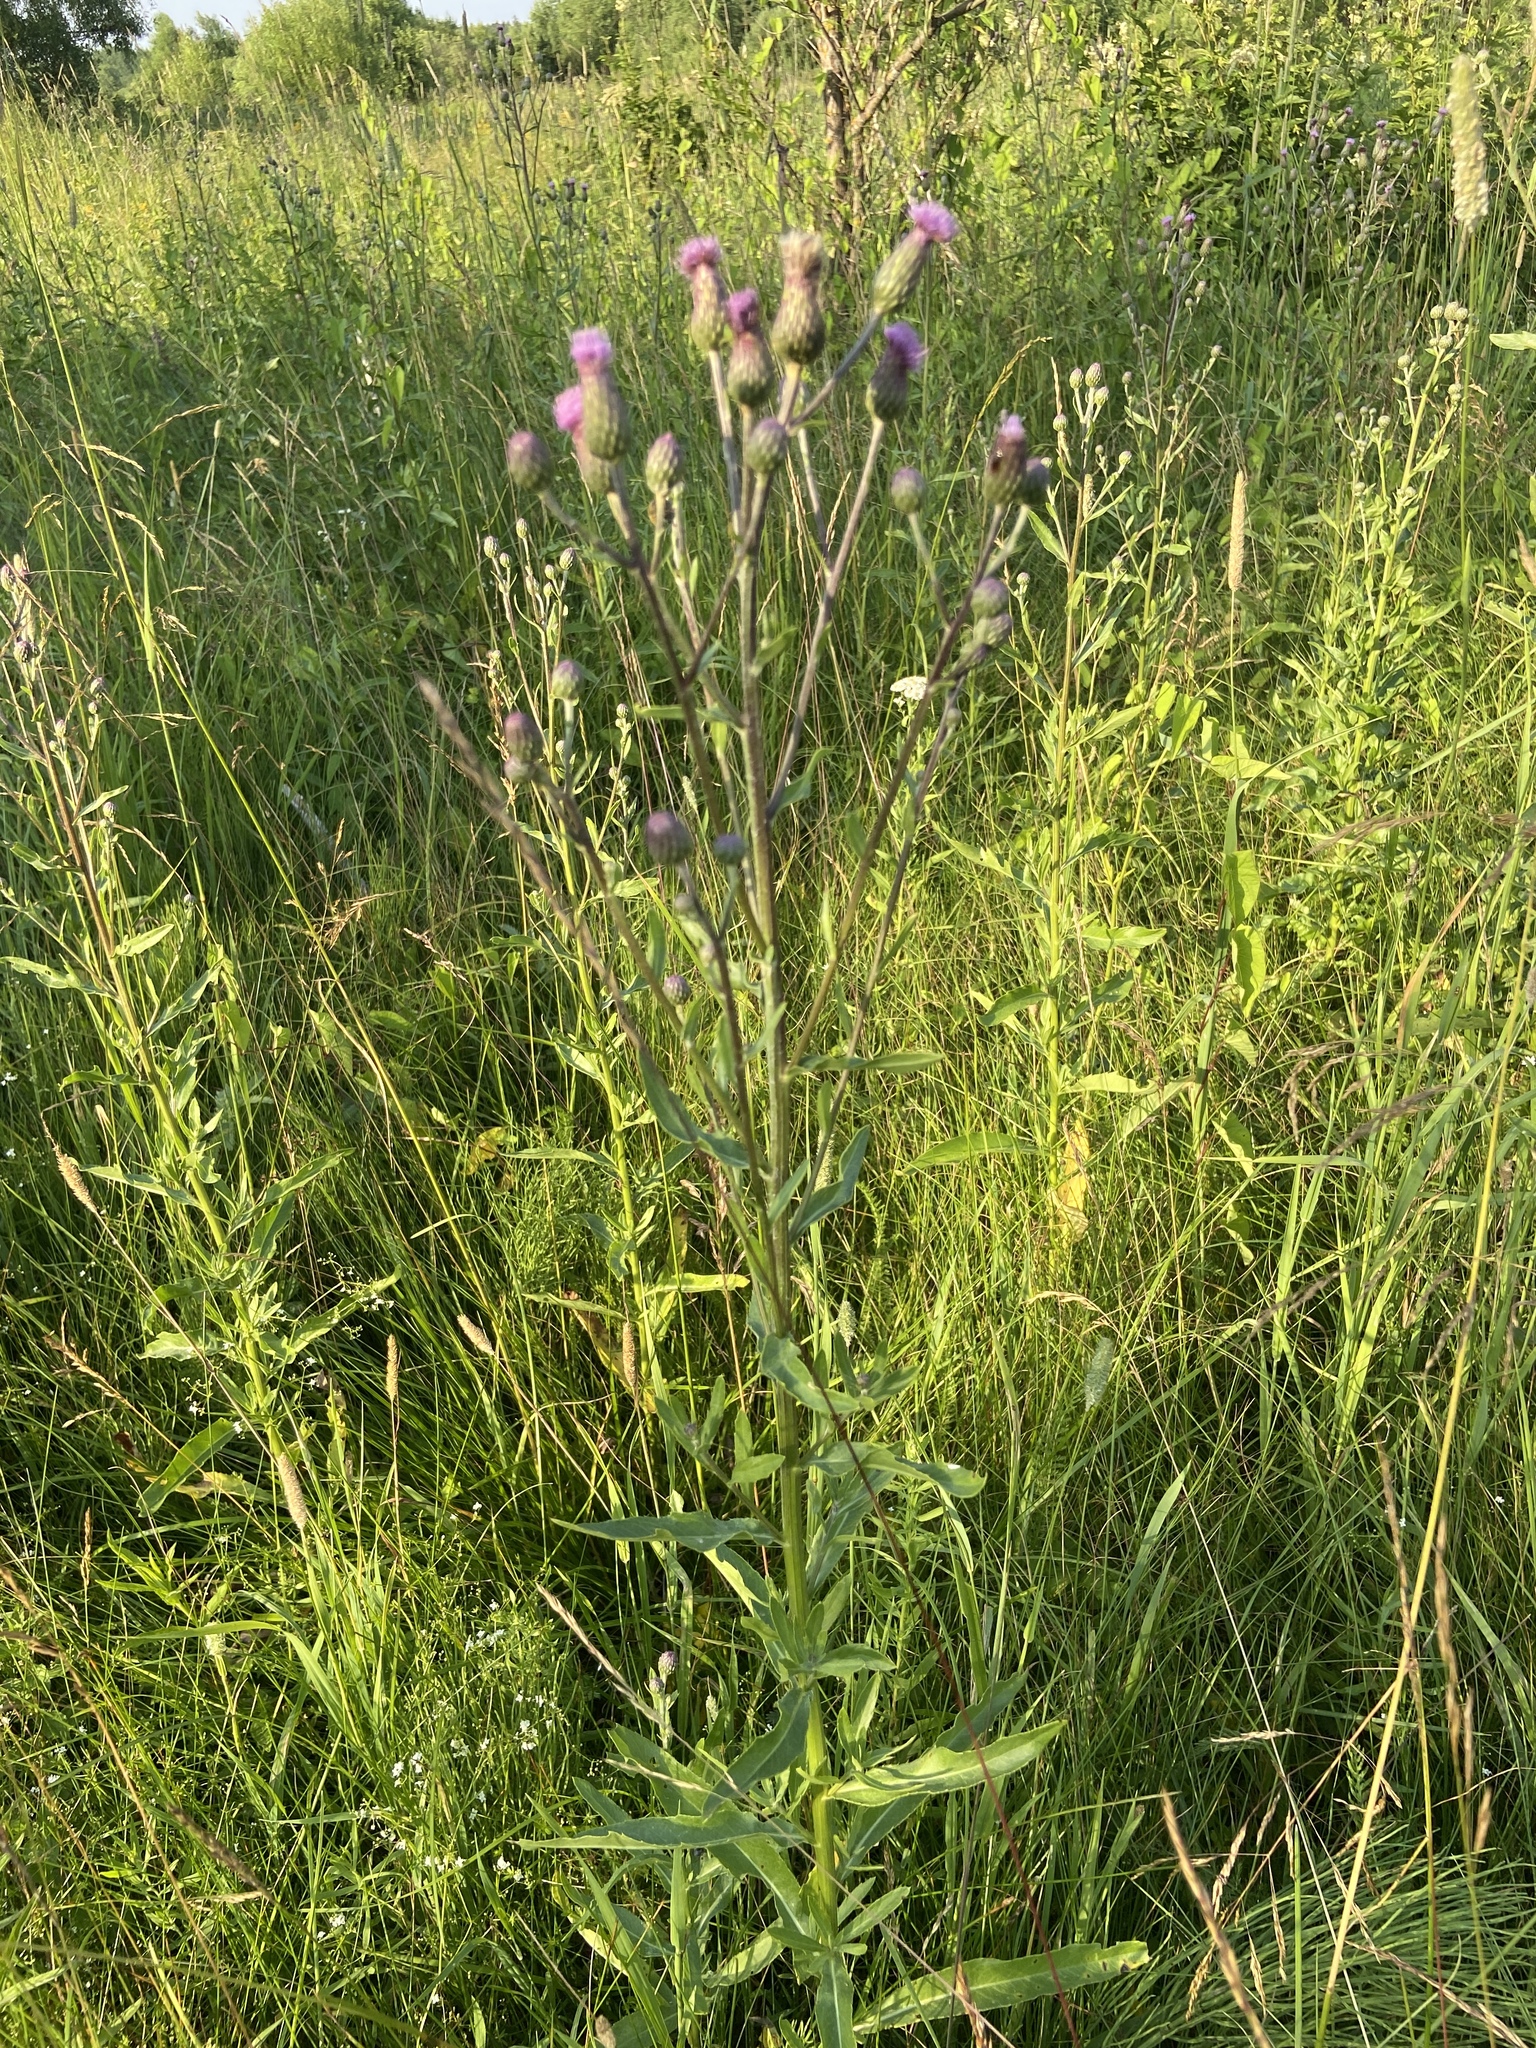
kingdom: Plantae
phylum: Tracheophyta
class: Magnoliopsida
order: Asterales
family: Asteraceae
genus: Cirsium
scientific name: Cirsium arvense
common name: Creeping thistle
